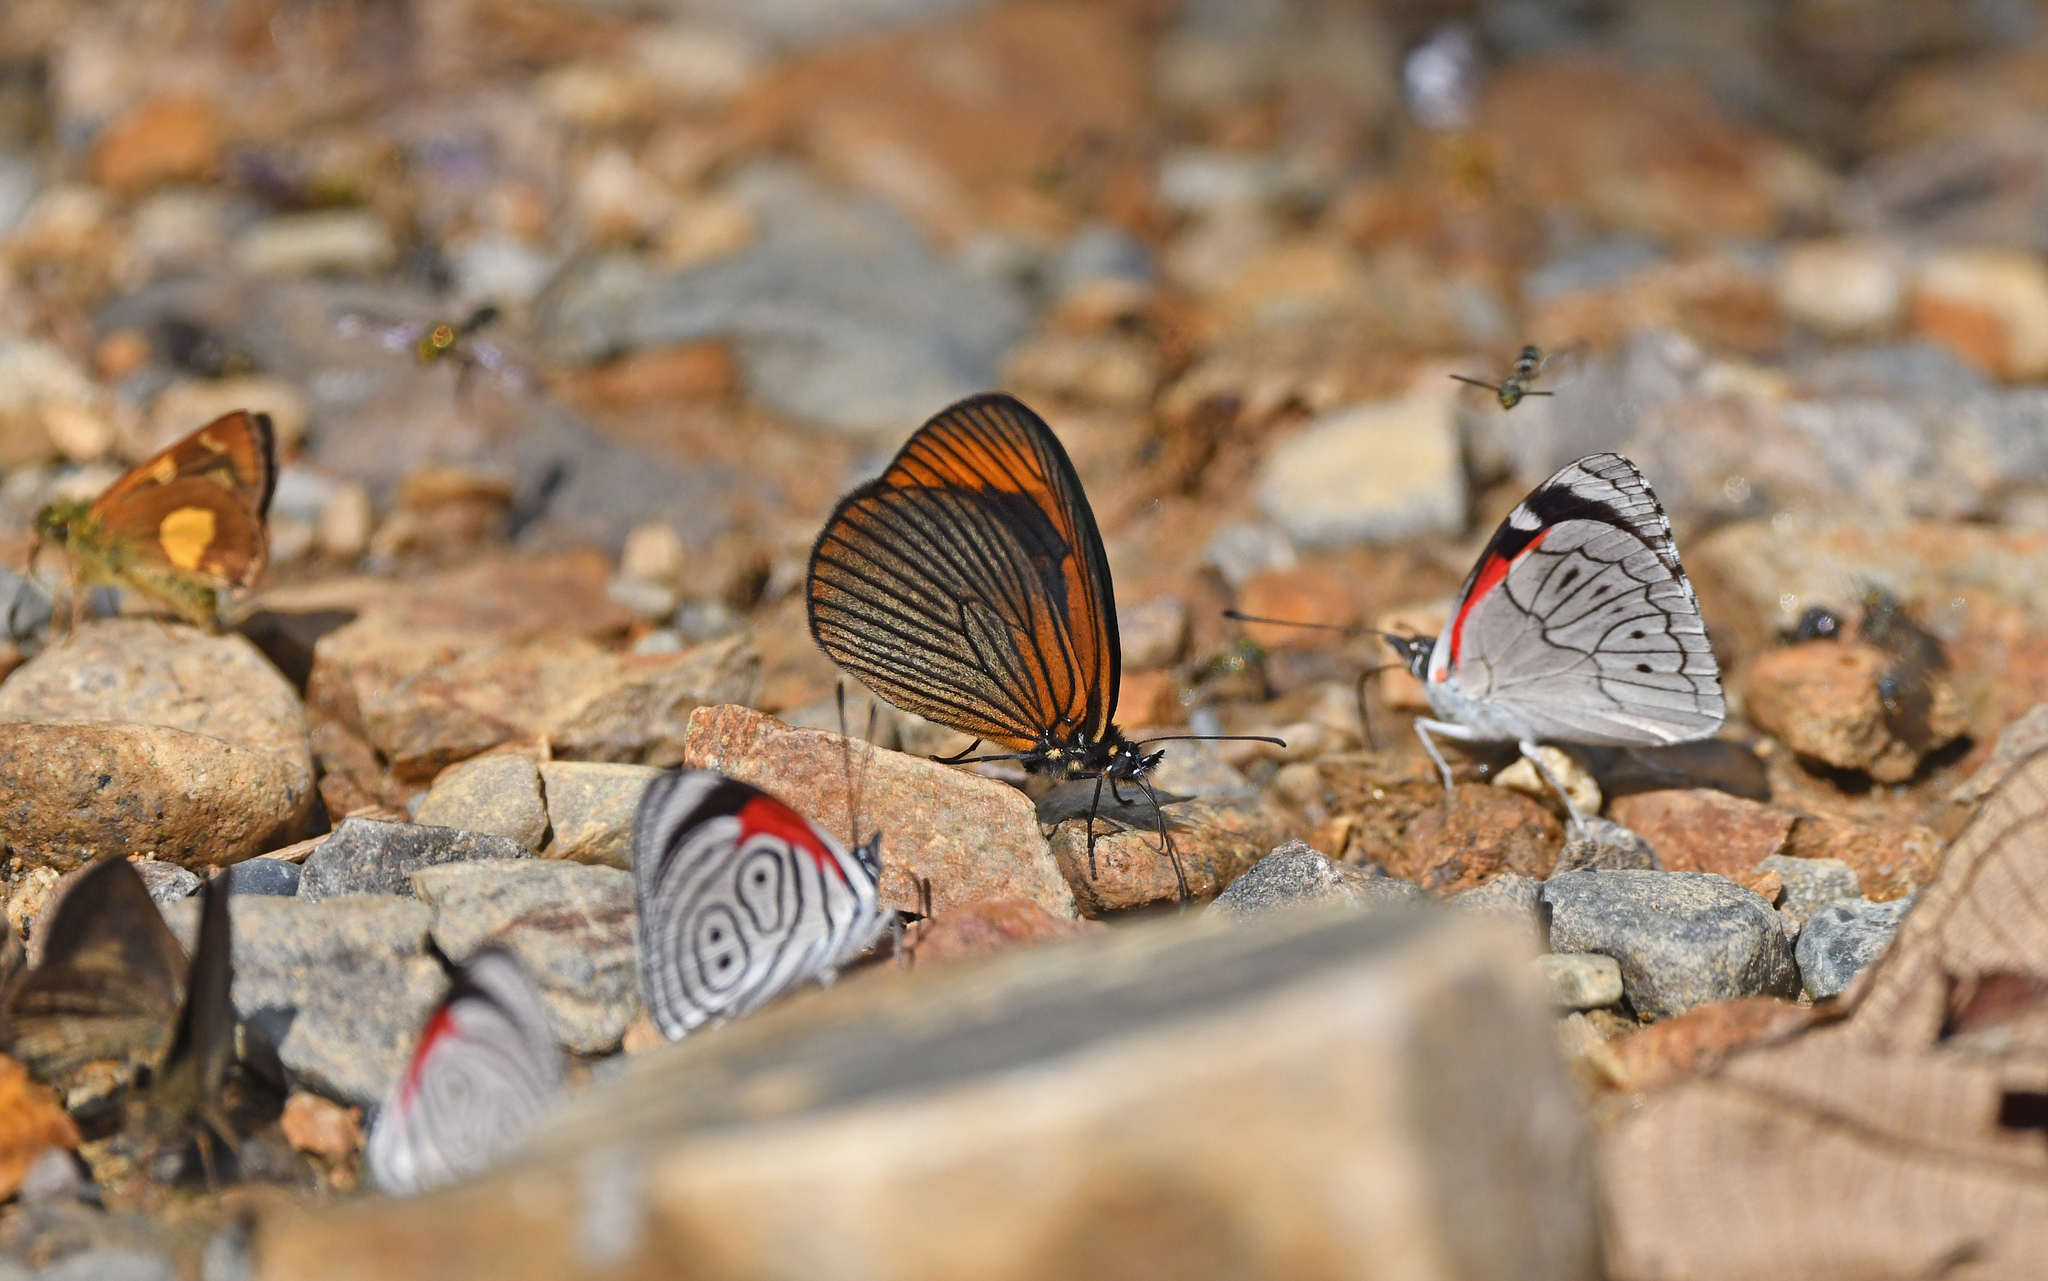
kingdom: Animalia
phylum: Arthropoda
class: Insecta
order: Lepidoptera
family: Nymphalidae
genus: Lymanopoda
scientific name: Lymanopoda acraeida
